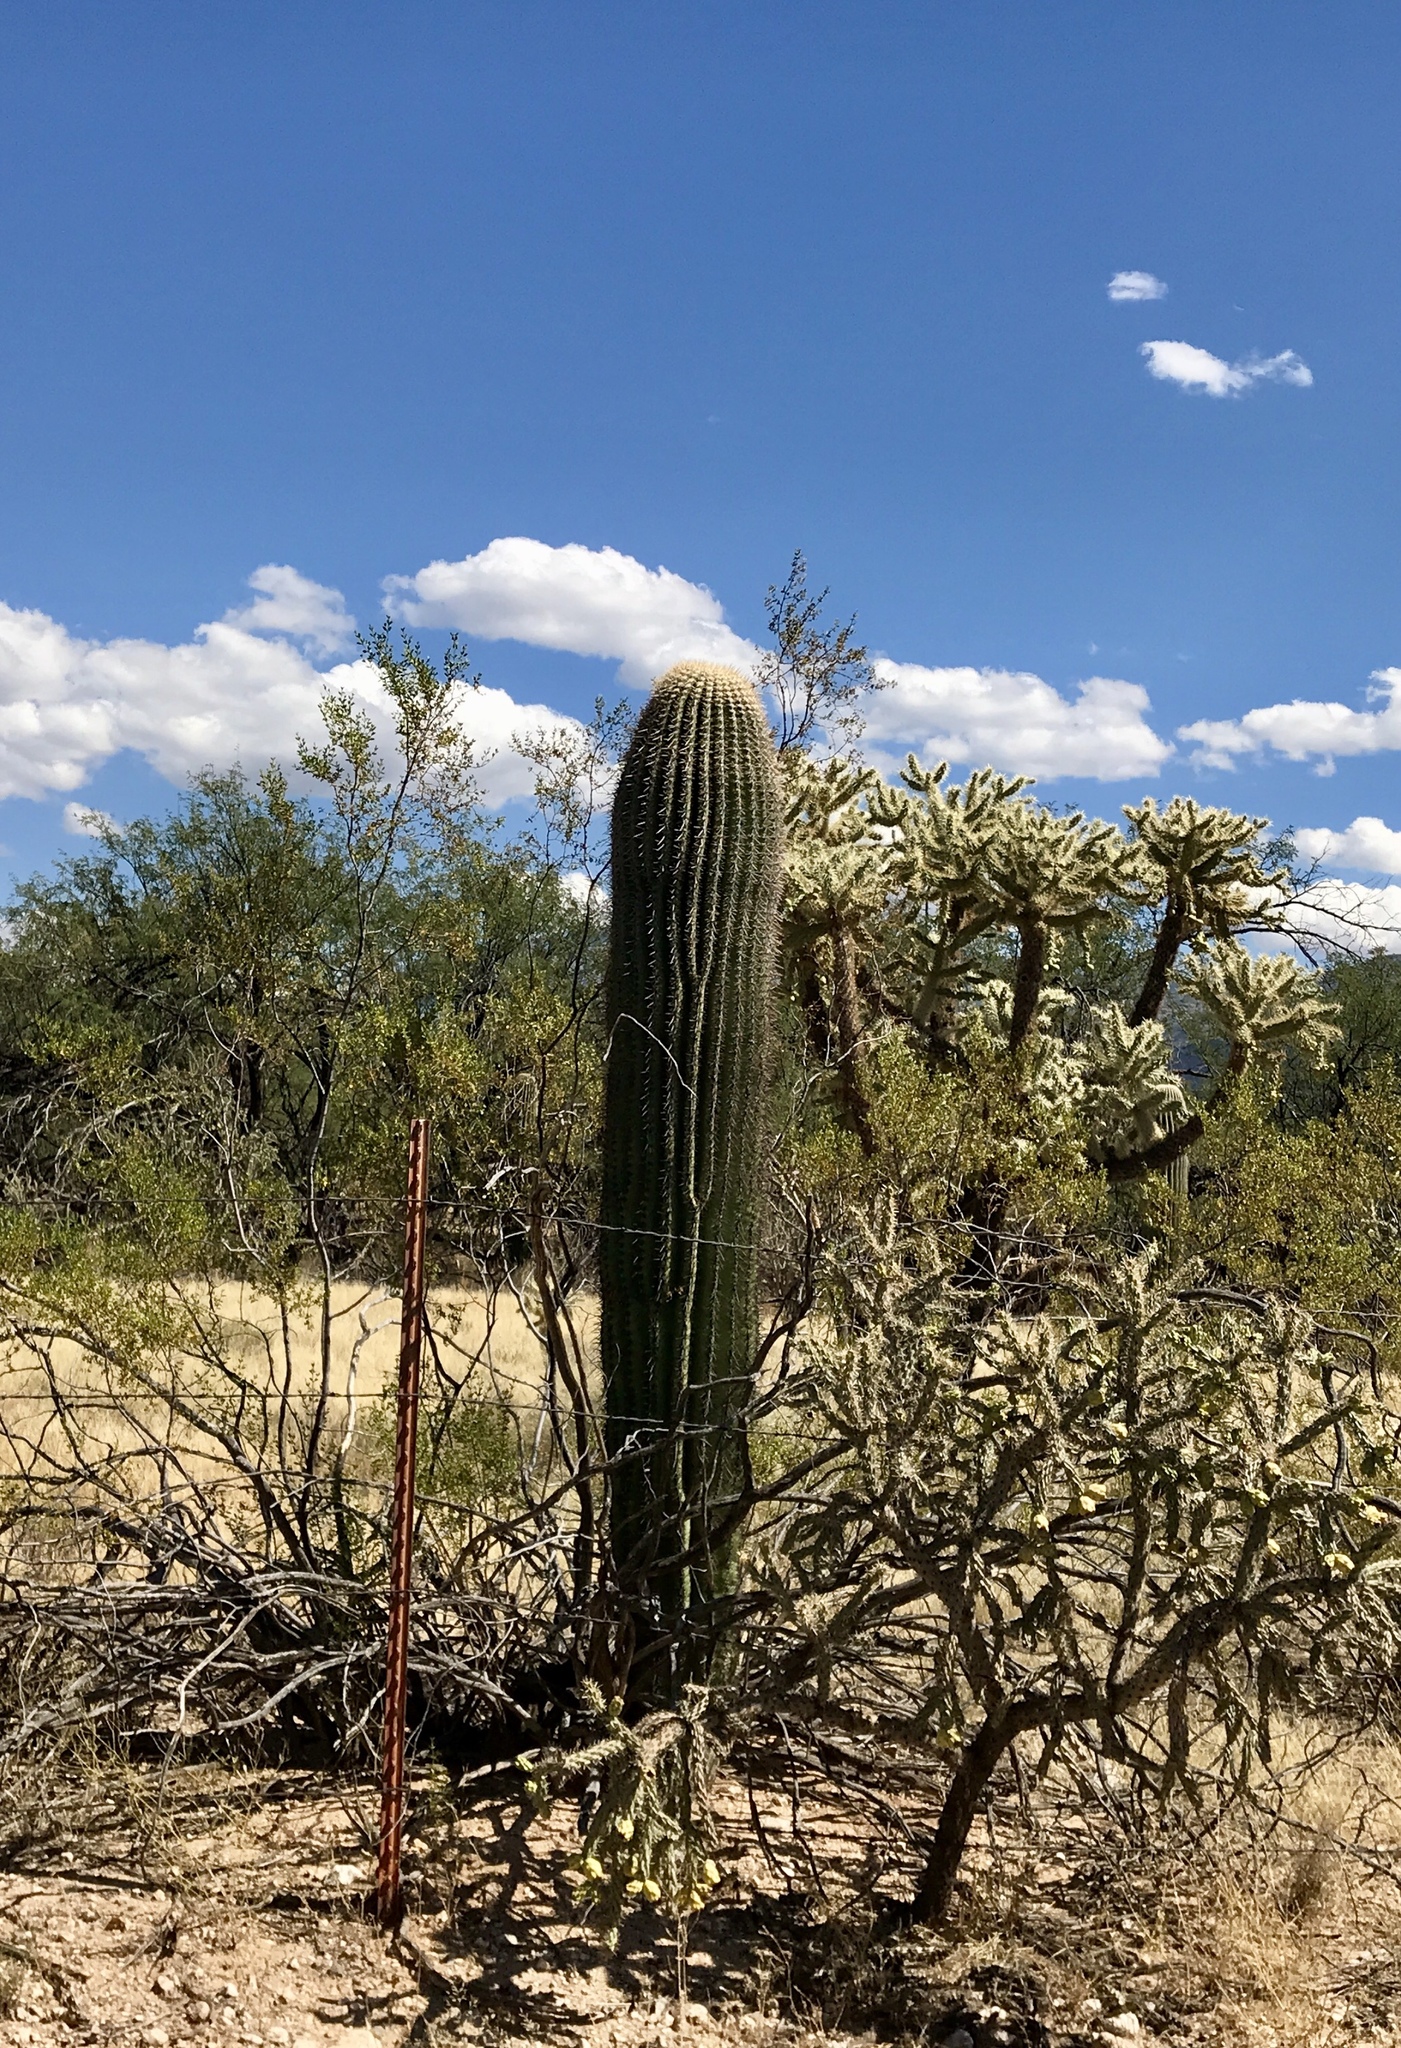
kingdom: Plantae
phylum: Tracheophyta
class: Magnoliopsida
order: Caryophyllales
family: Cactaceae
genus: Carnegiea
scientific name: Carnegiea gigantea
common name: Saguaro
